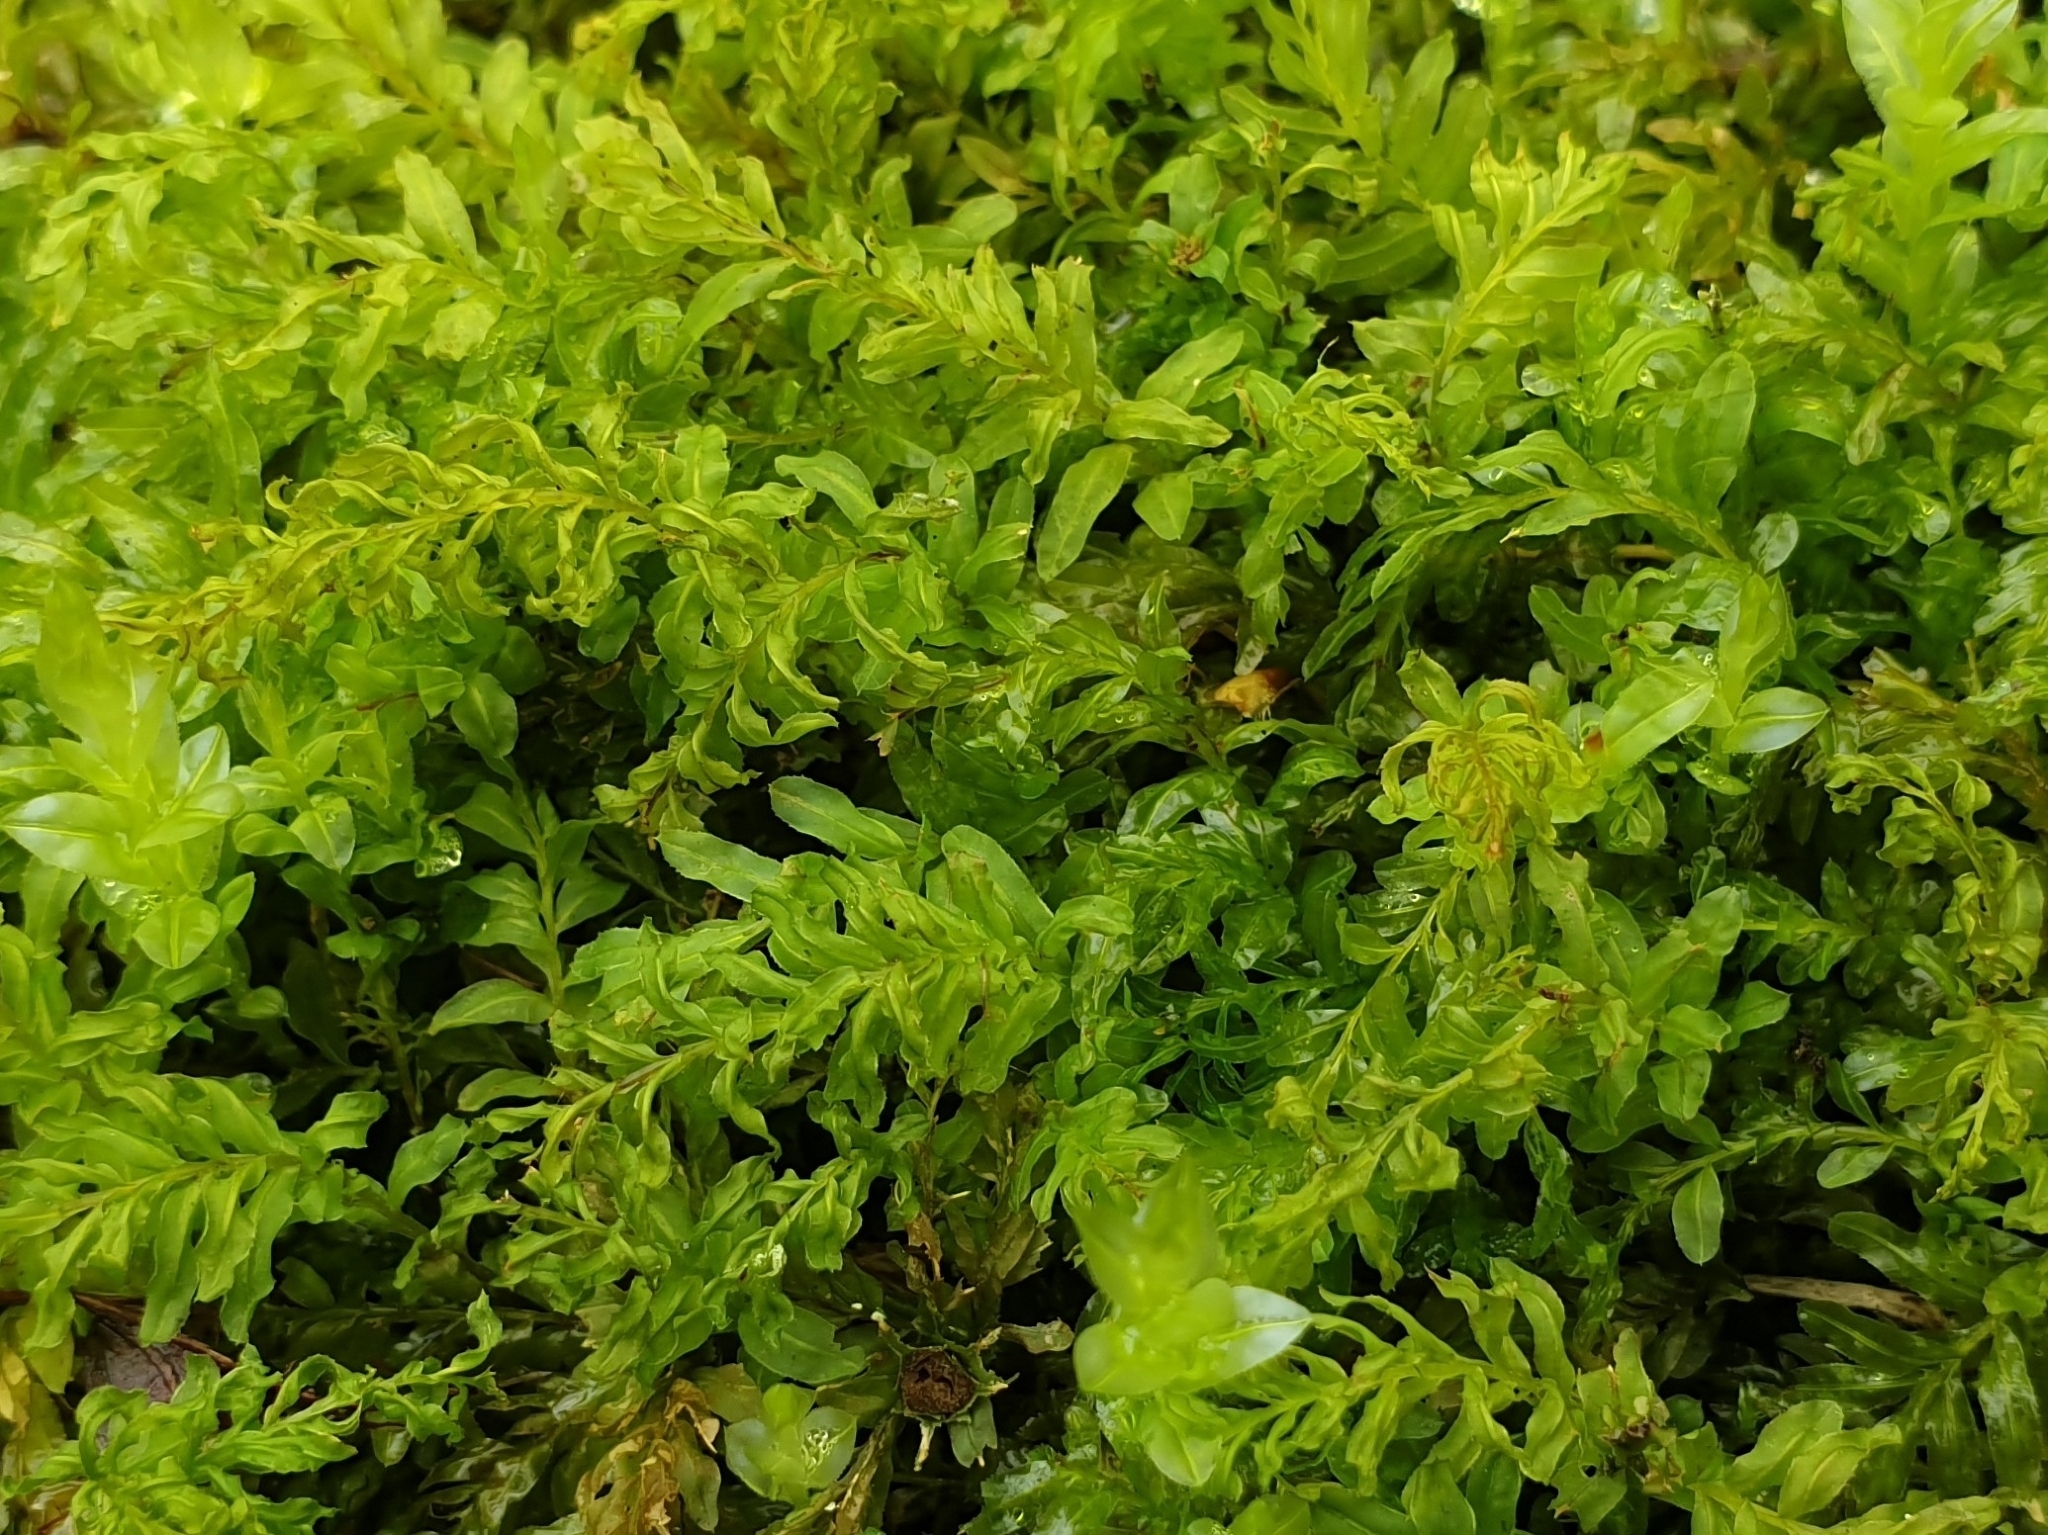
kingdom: Plantae
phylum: Bryophyta
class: Bryopsida
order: Bryales
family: Mniaceae
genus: Plagiomnium
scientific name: Plagiomnium undulatum
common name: Hart's-tongue thyme-moss
